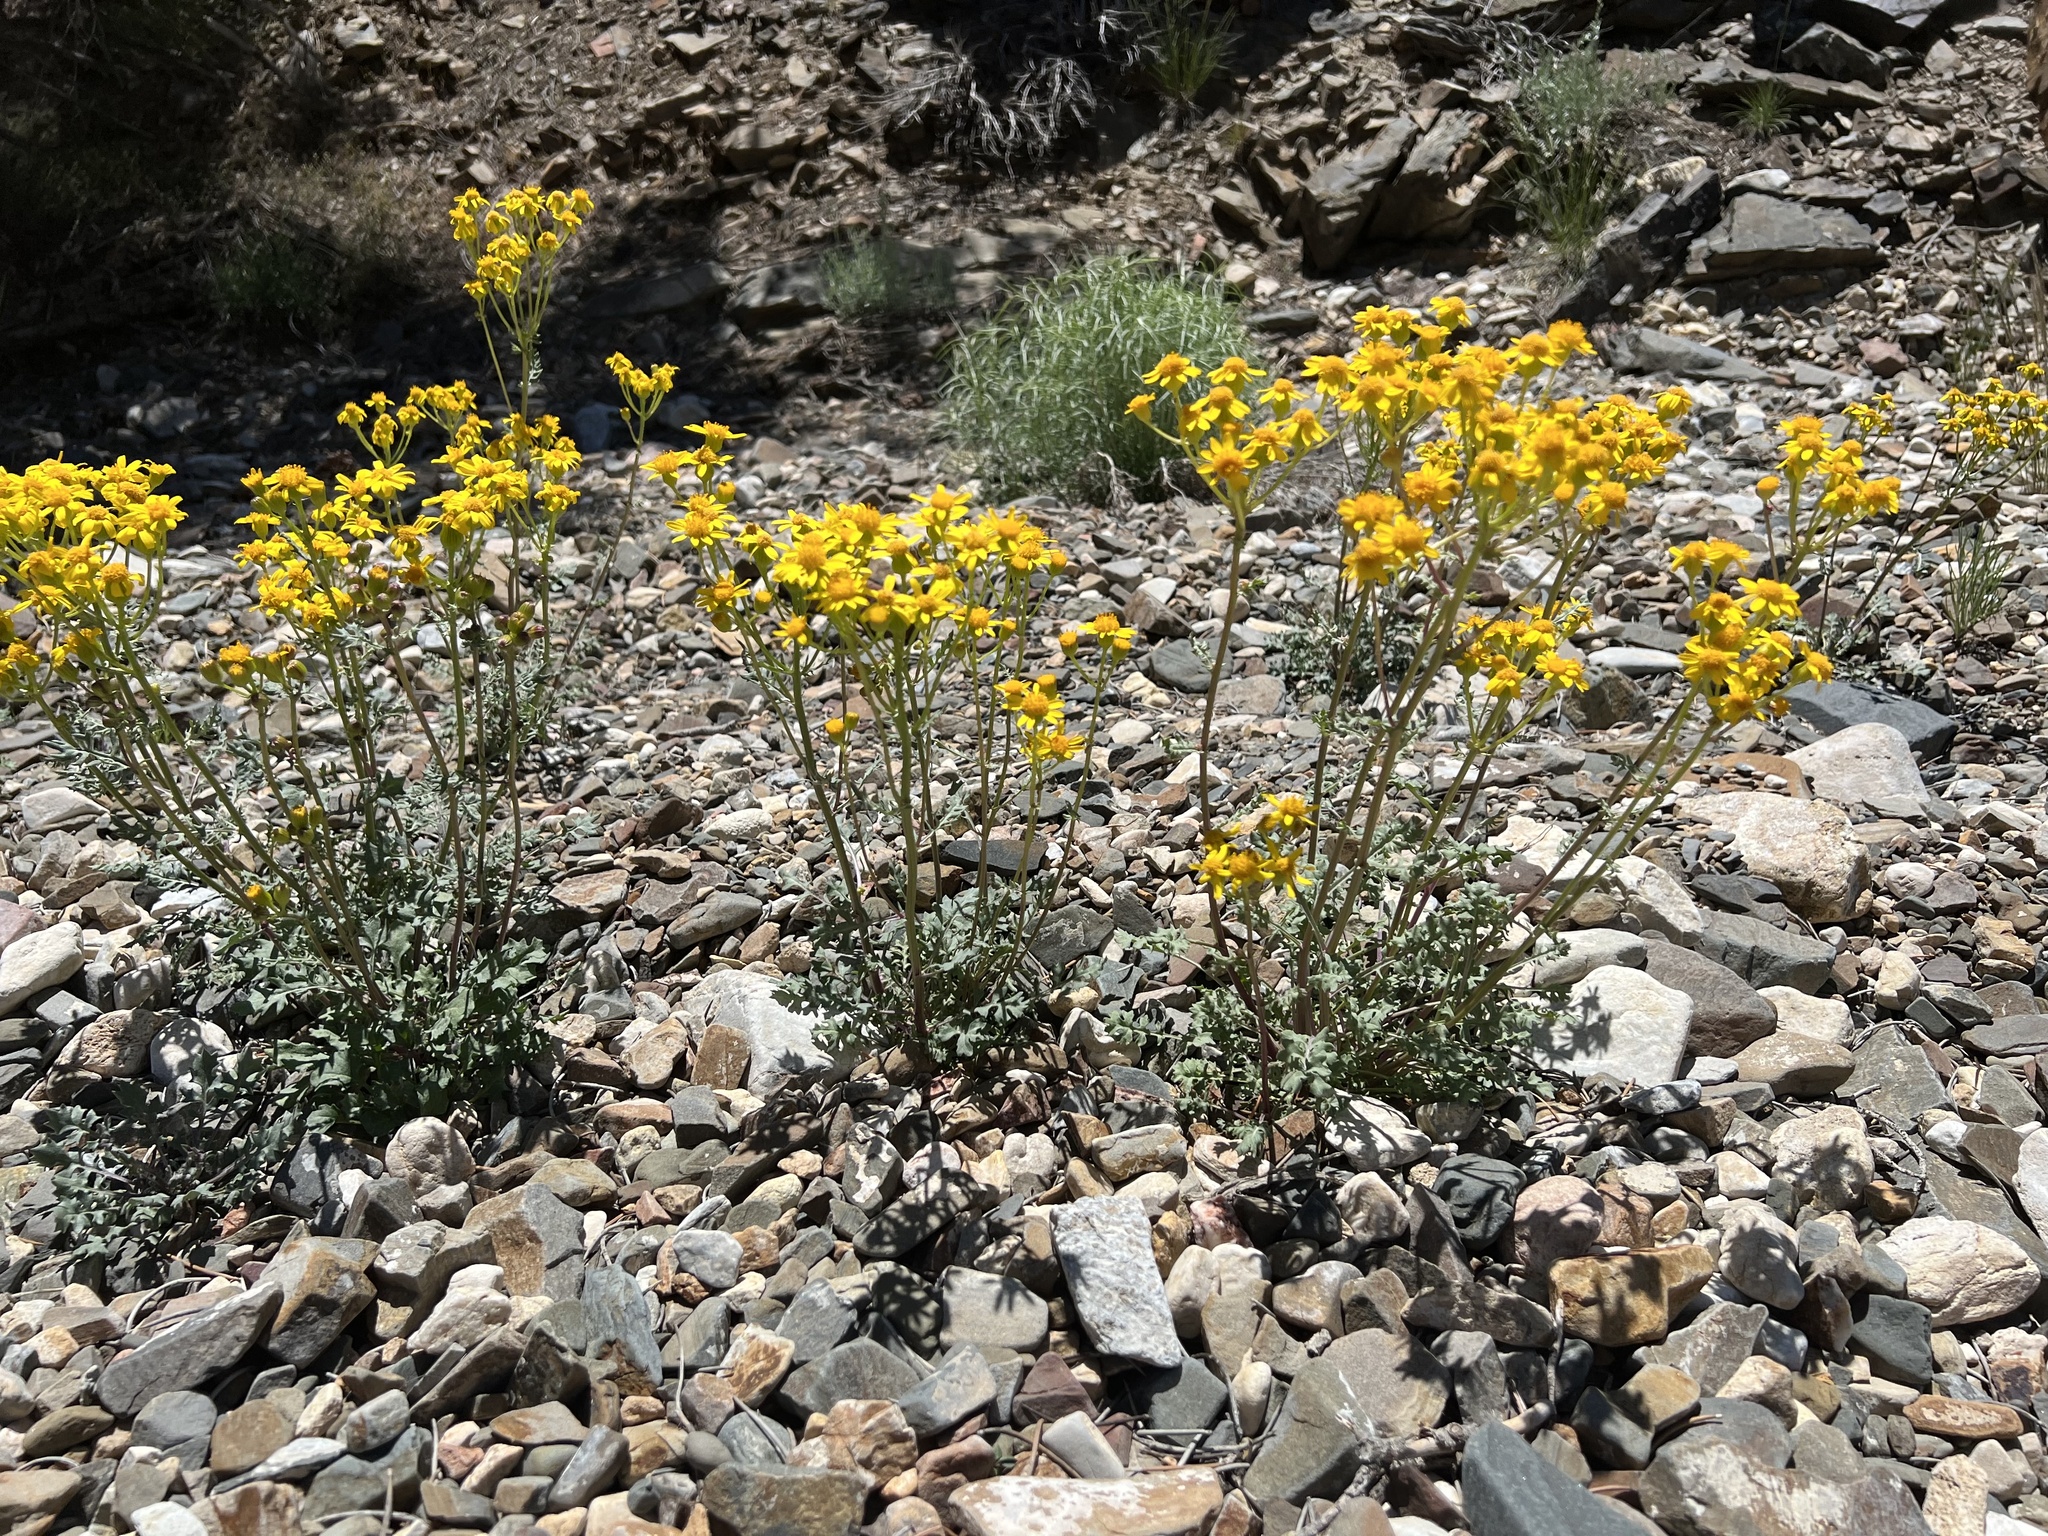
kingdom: Plantae
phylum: Tracheophyta
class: Magnoliopsida
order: Asterales
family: Asteraceae
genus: Packera
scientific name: Packera multilobata
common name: Lobe-leaf groundsel
